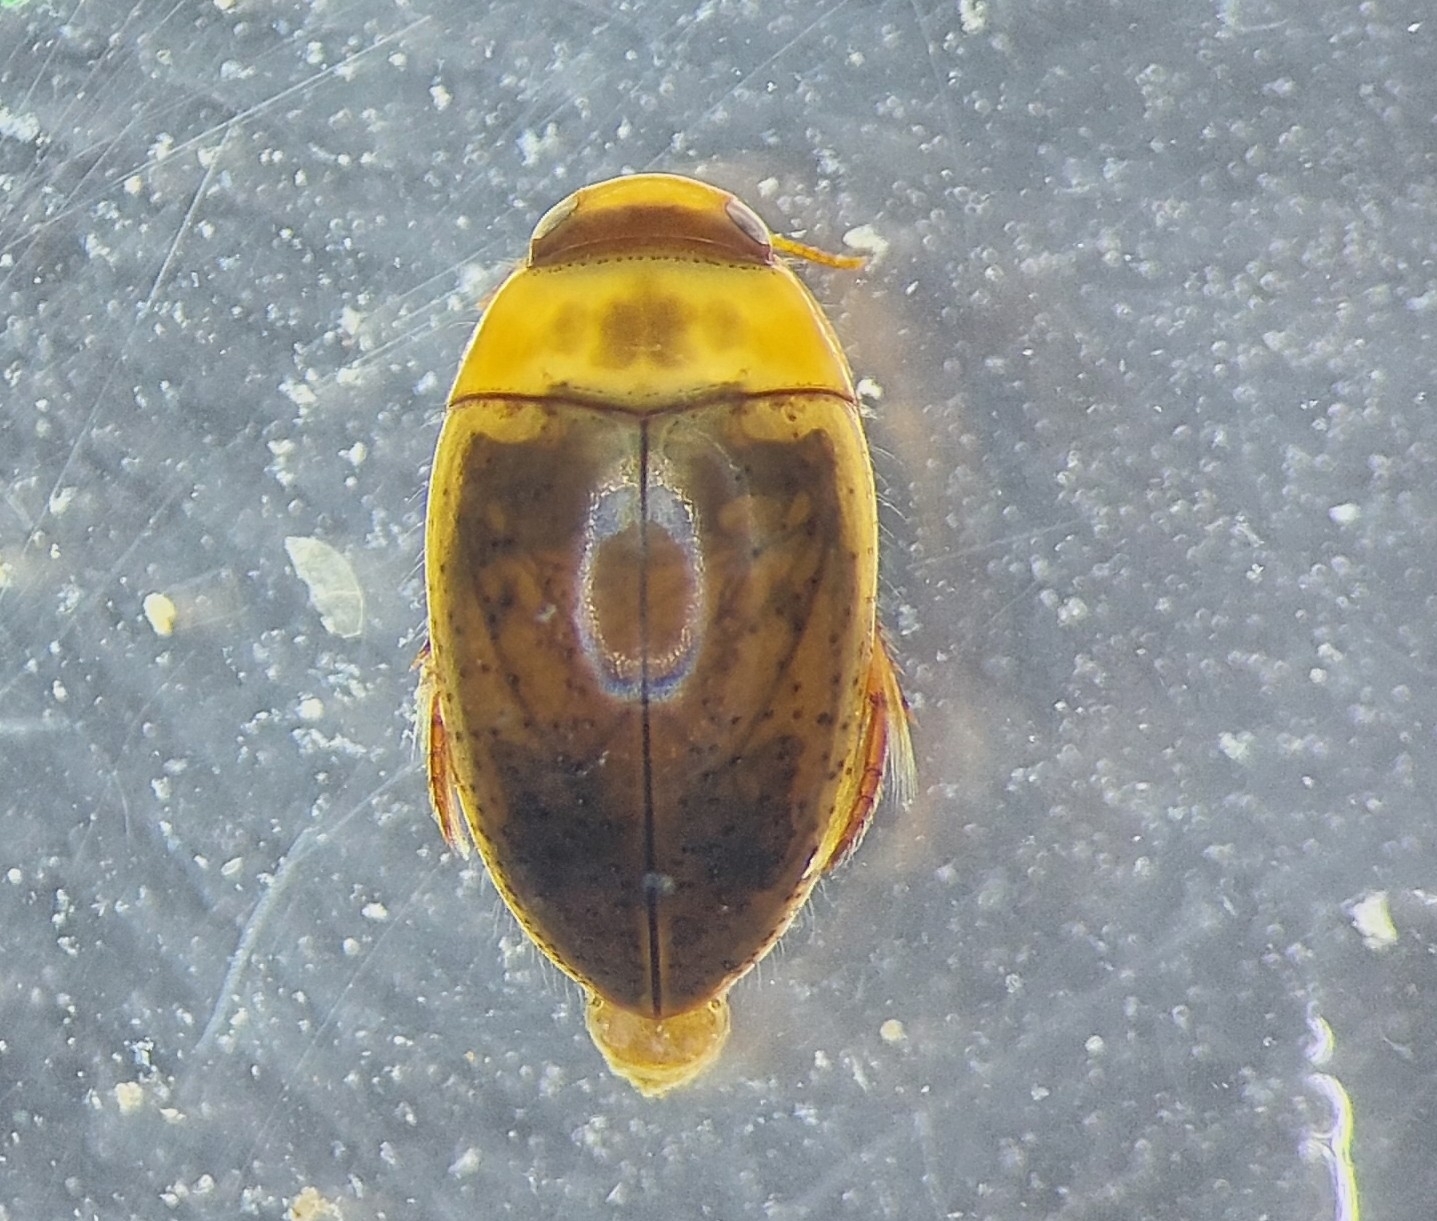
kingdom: Animalia
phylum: Arthropoda
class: Insecta
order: Coleoptera
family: Noteridae
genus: Noterus
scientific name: Noterus clavicornis
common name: Larger noterus
